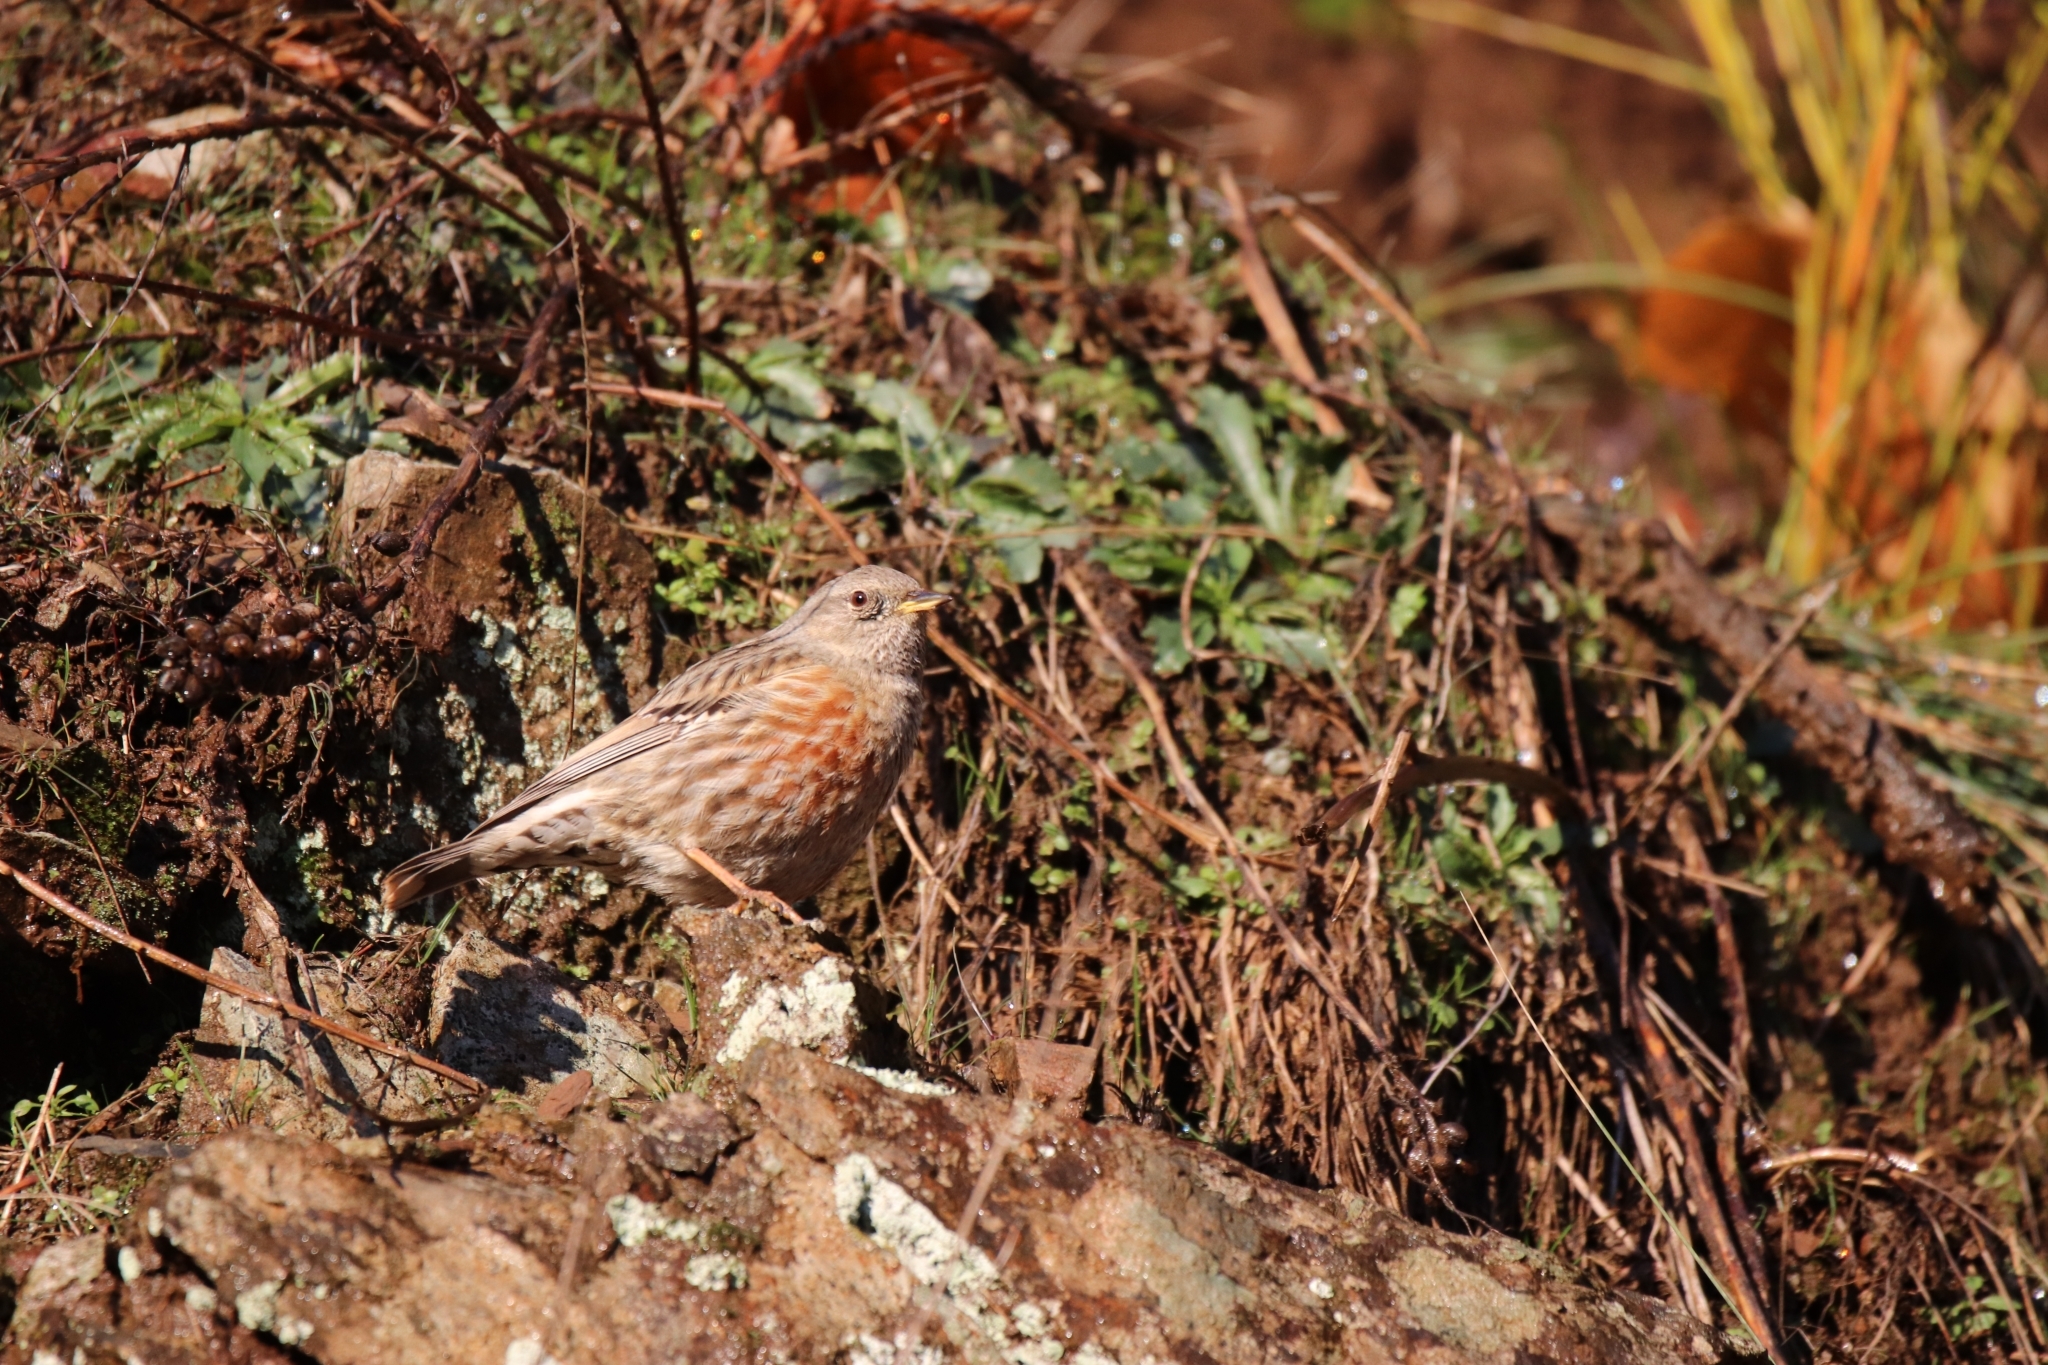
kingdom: Animalia
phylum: Chordata
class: Aves
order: Passeriformes
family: Prunellidae
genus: Prunella
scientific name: Prunella collaris
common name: Alpine accentor
